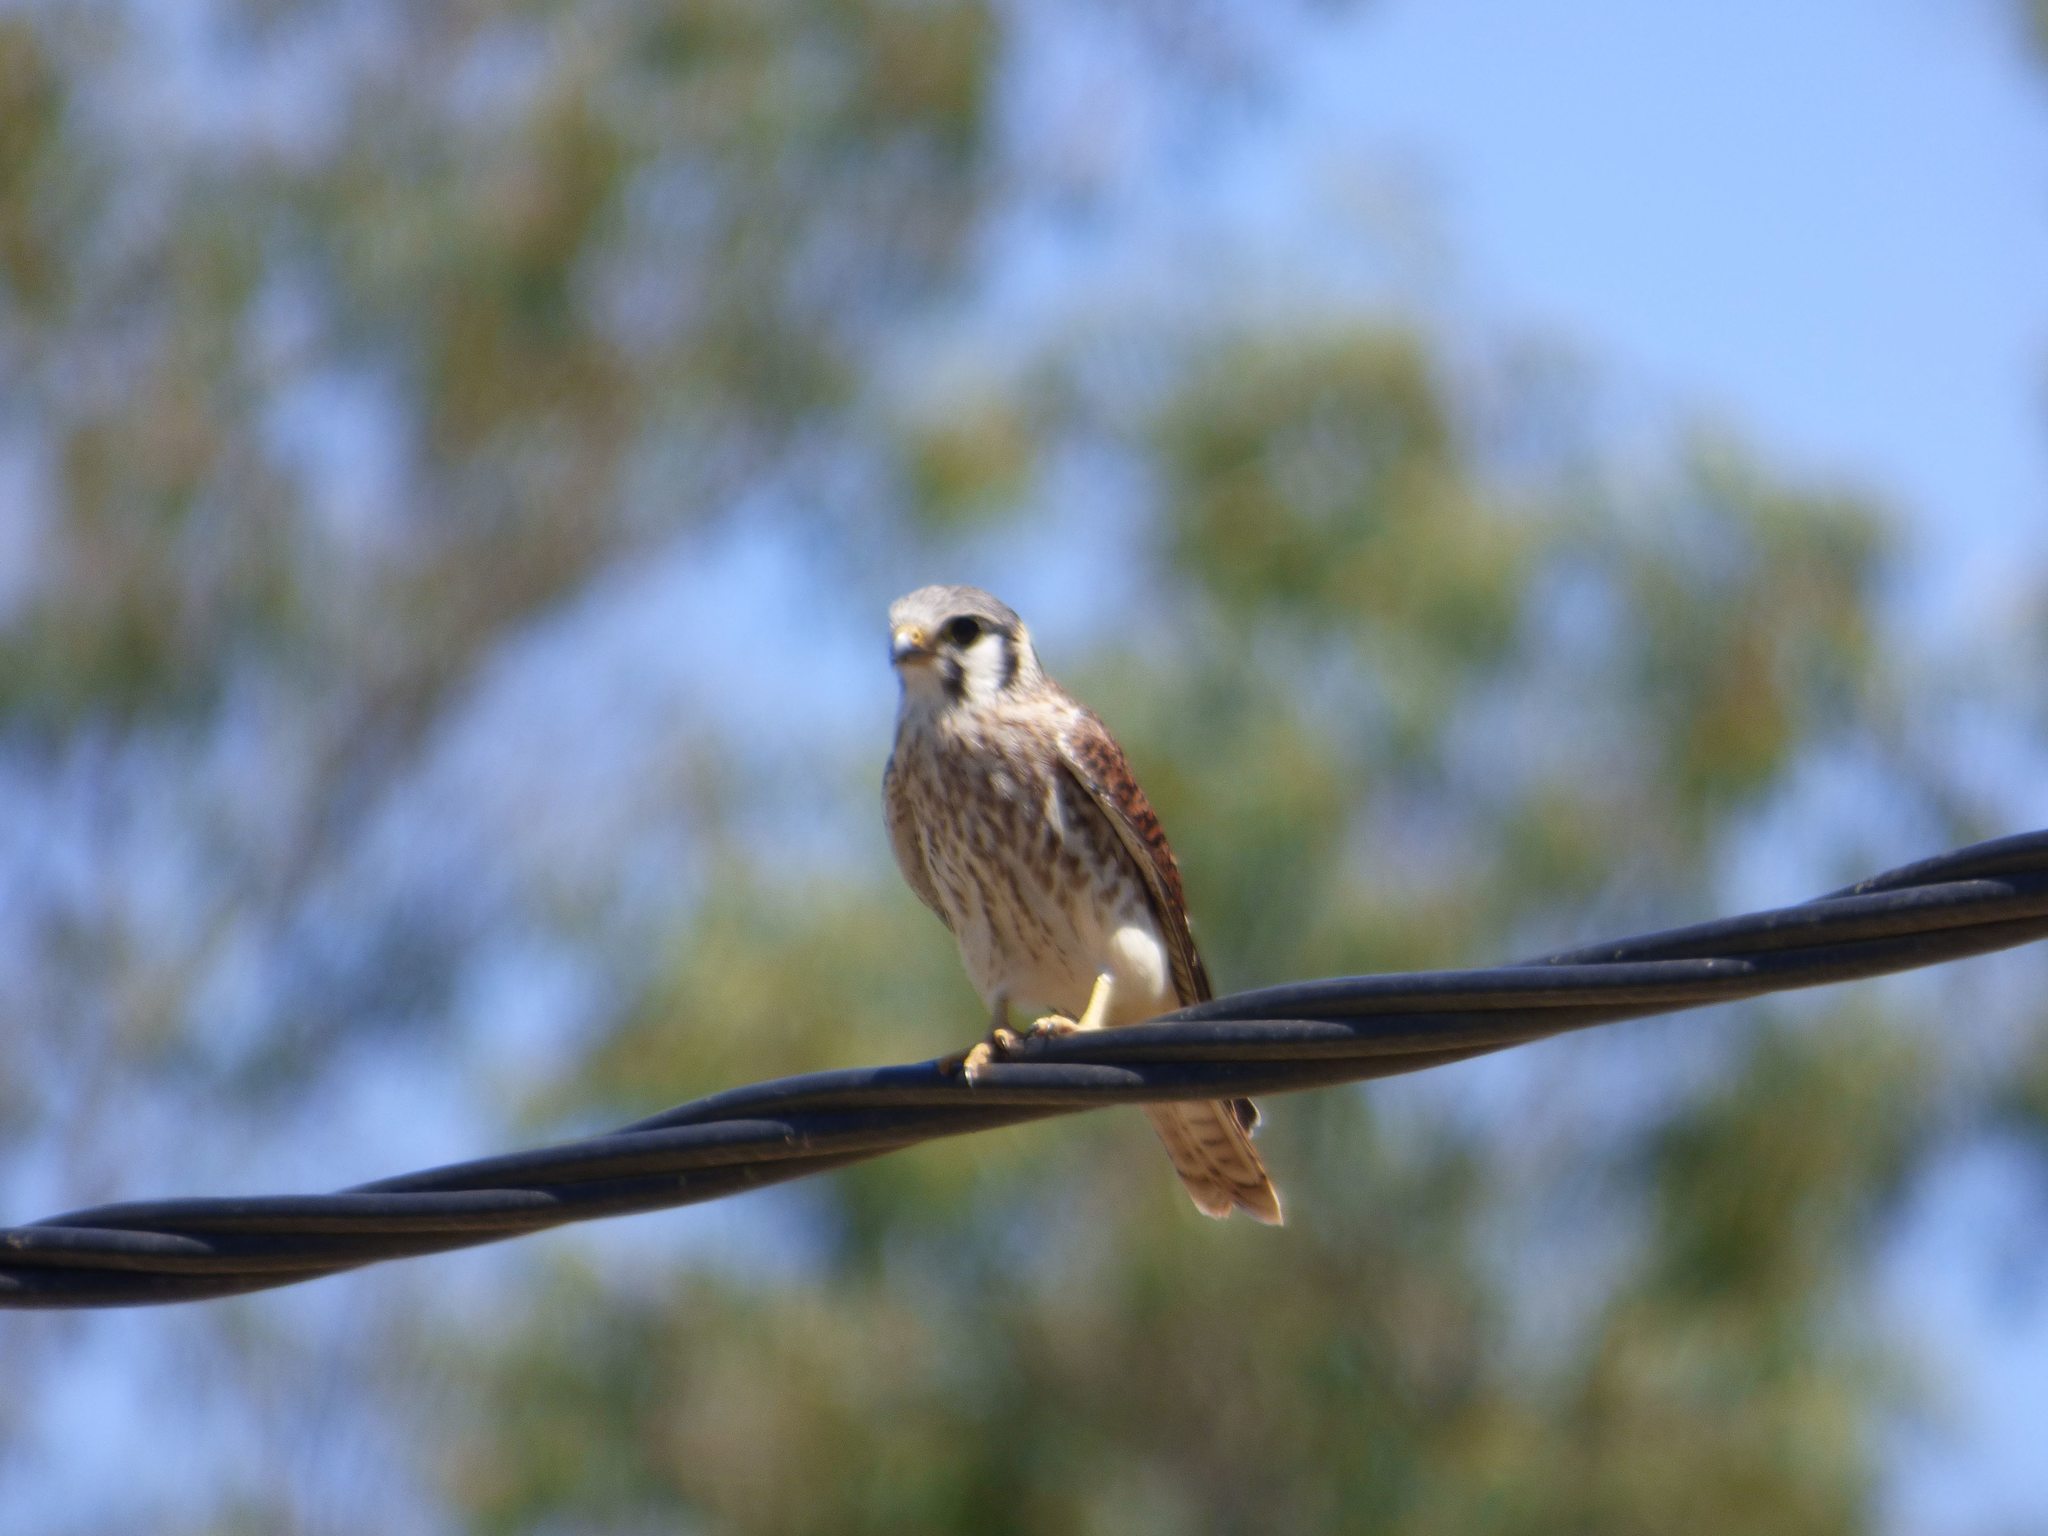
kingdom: Animalia
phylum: Chordata
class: Aves
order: Falconiformes
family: Falconidae
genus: Falco
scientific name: Falco sparverius
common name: American kestrel
